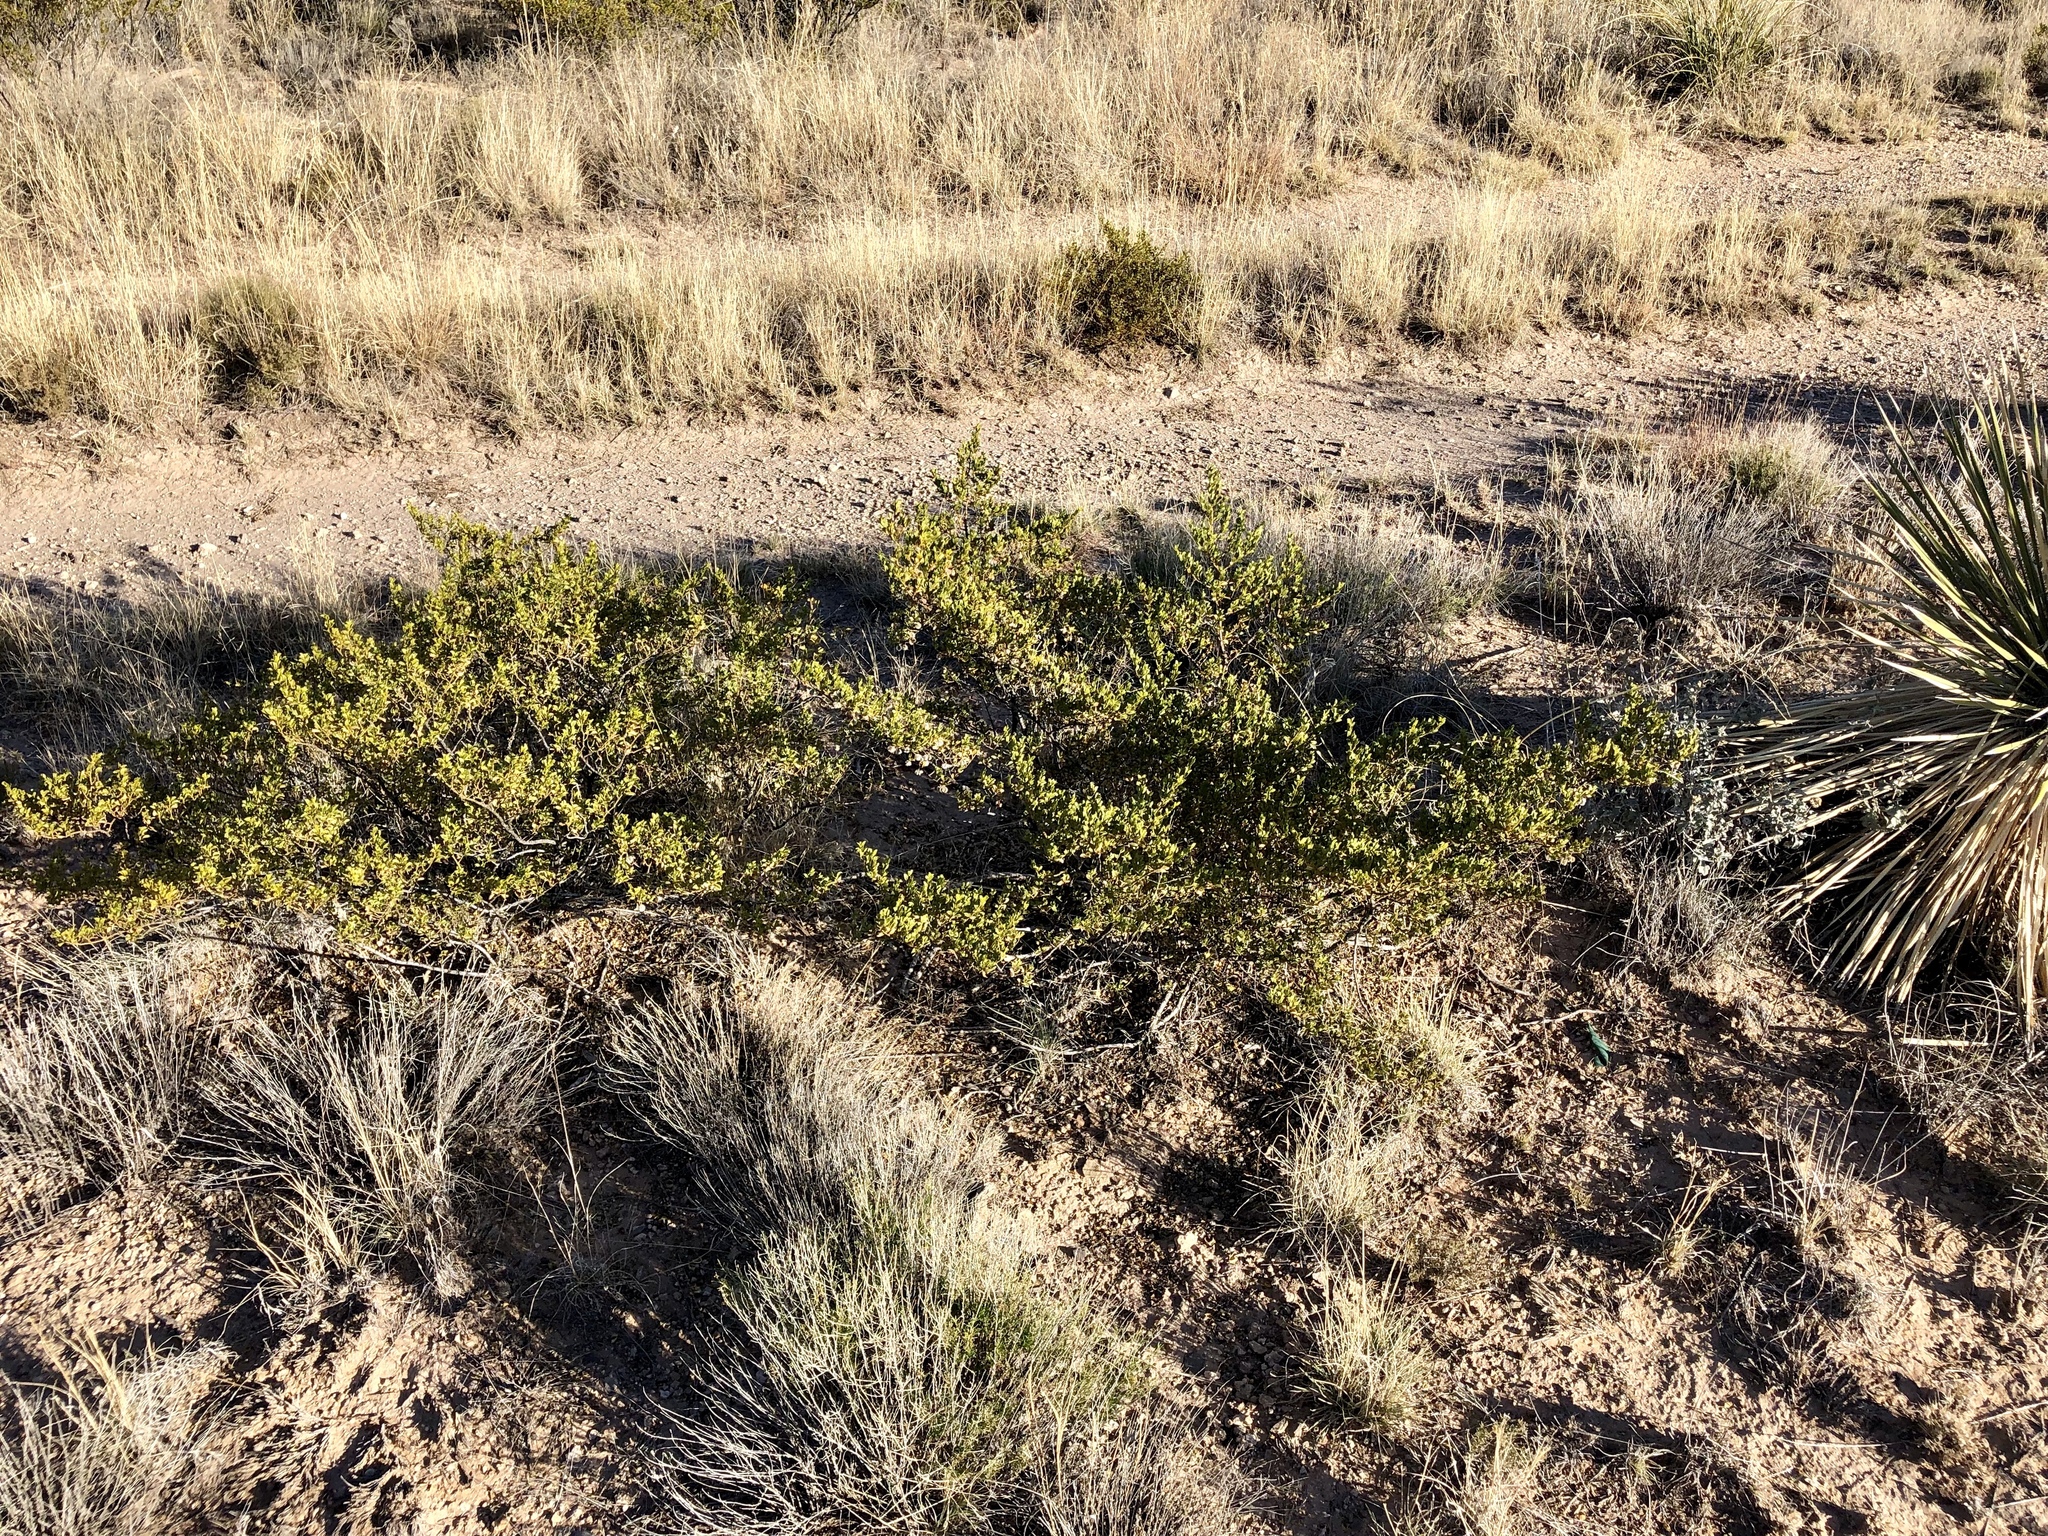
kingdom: Plantae
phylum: Tracheophyta
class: Magnoliopsida
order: Zygophyllales
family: Zygophyllaceae
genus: Larrea
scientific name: Larrea tridentata
